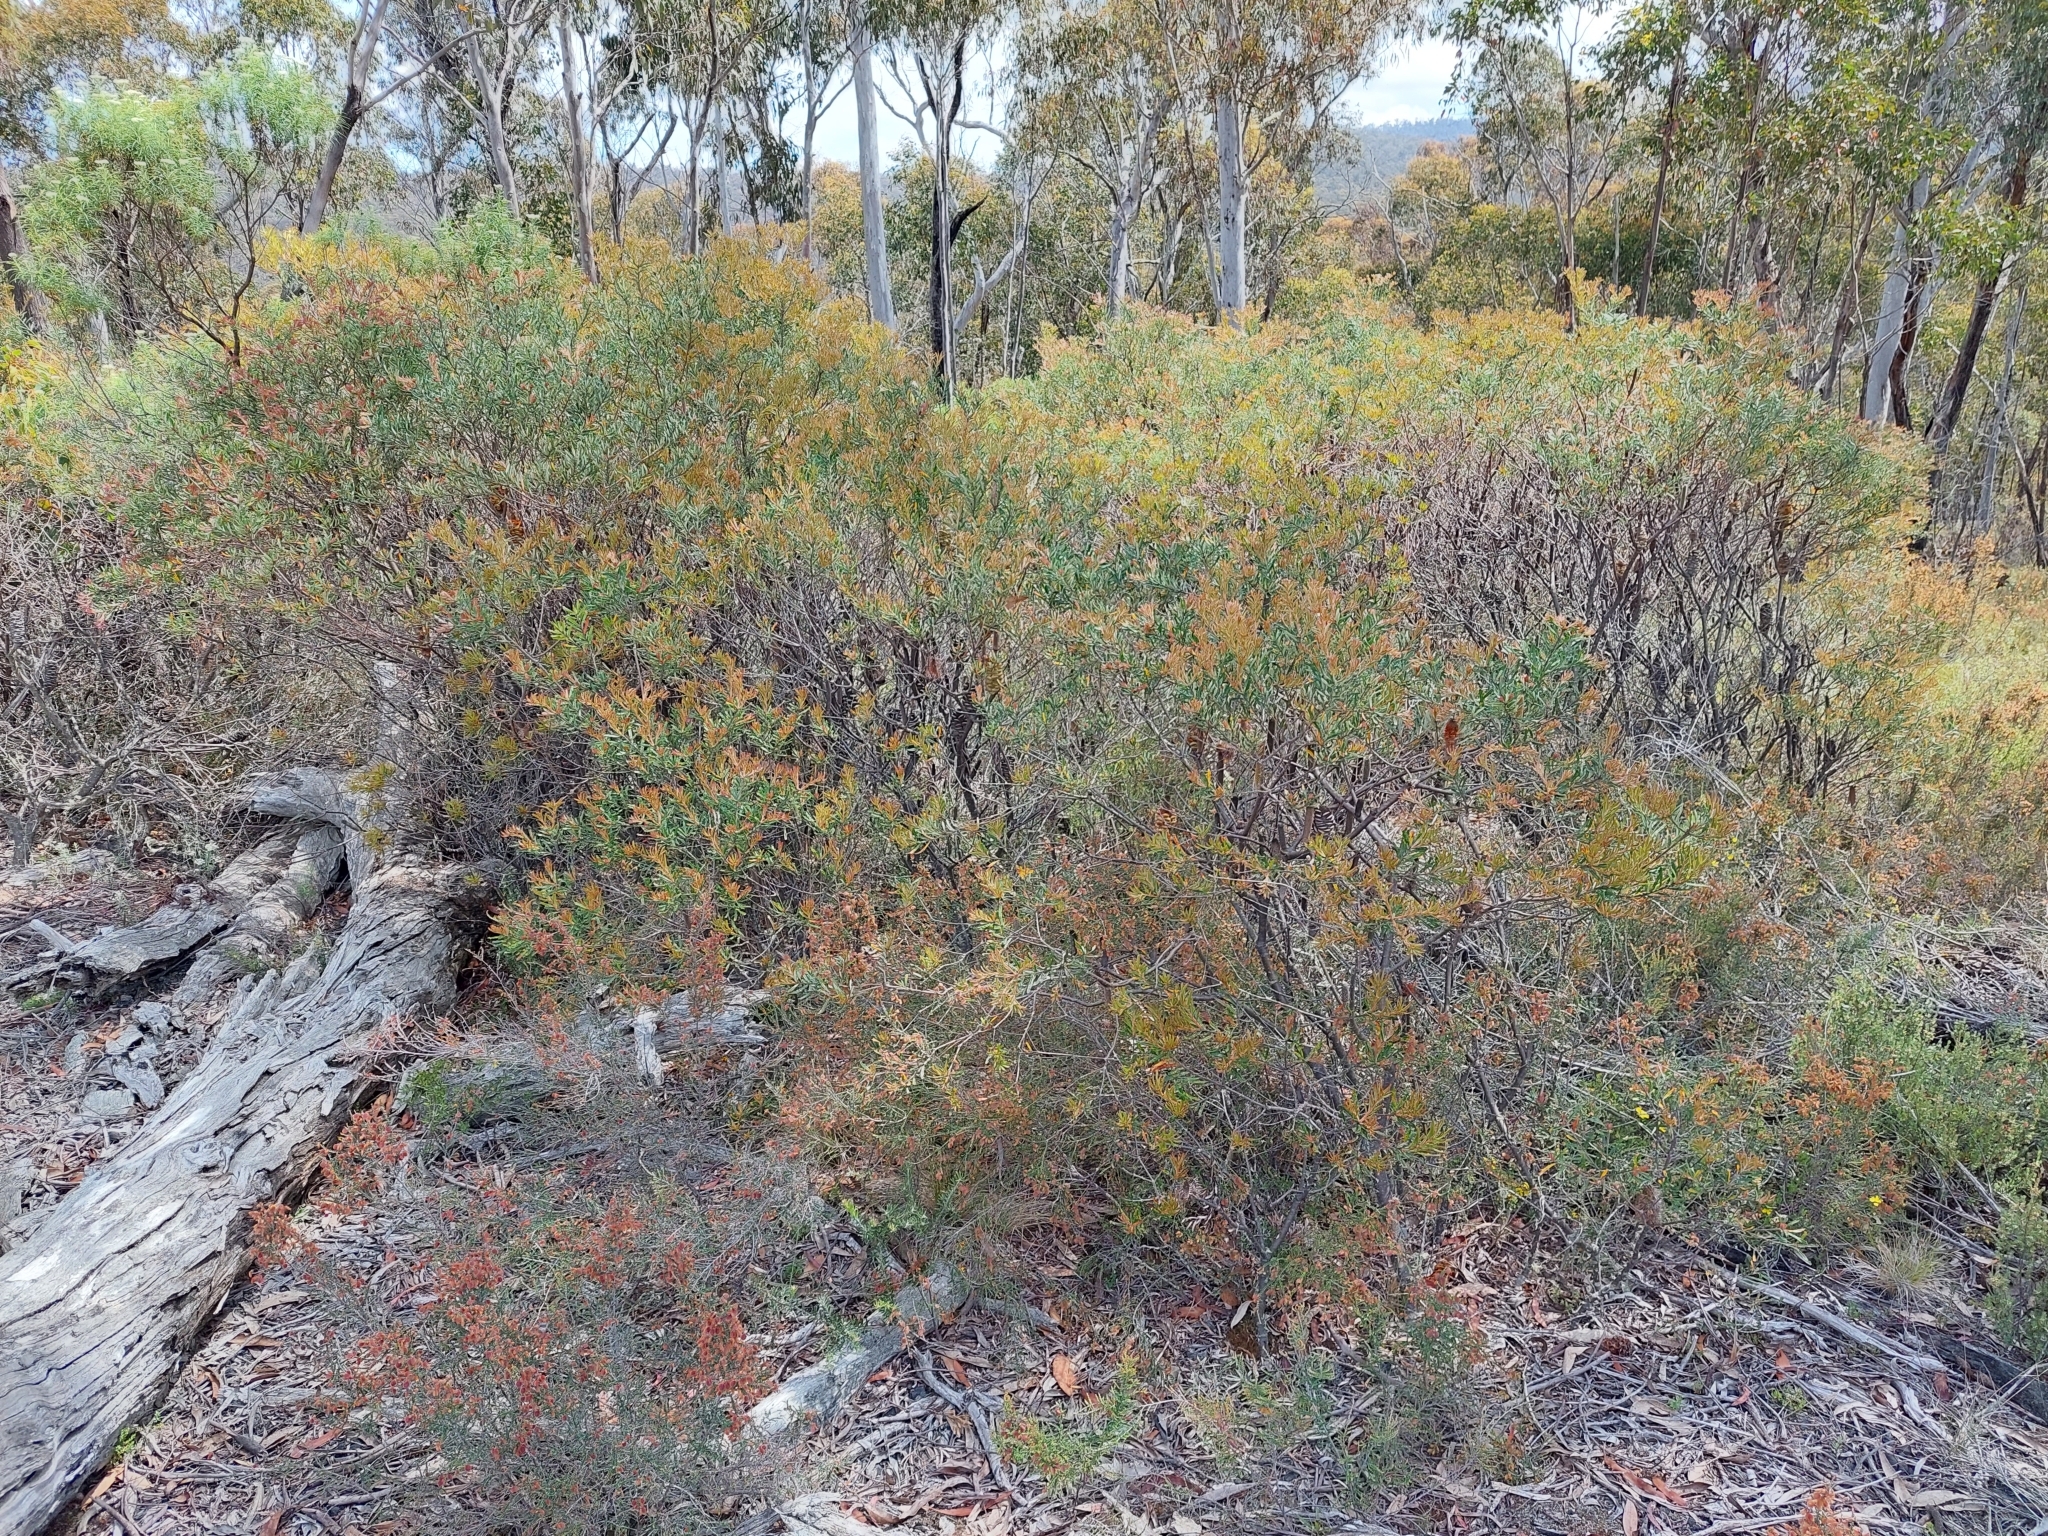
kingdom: Plantae
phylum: Tracheophyta
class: Magnoliopsida
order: Proteales
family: Proteaceae
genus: Banksia
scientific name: Banksia canei
